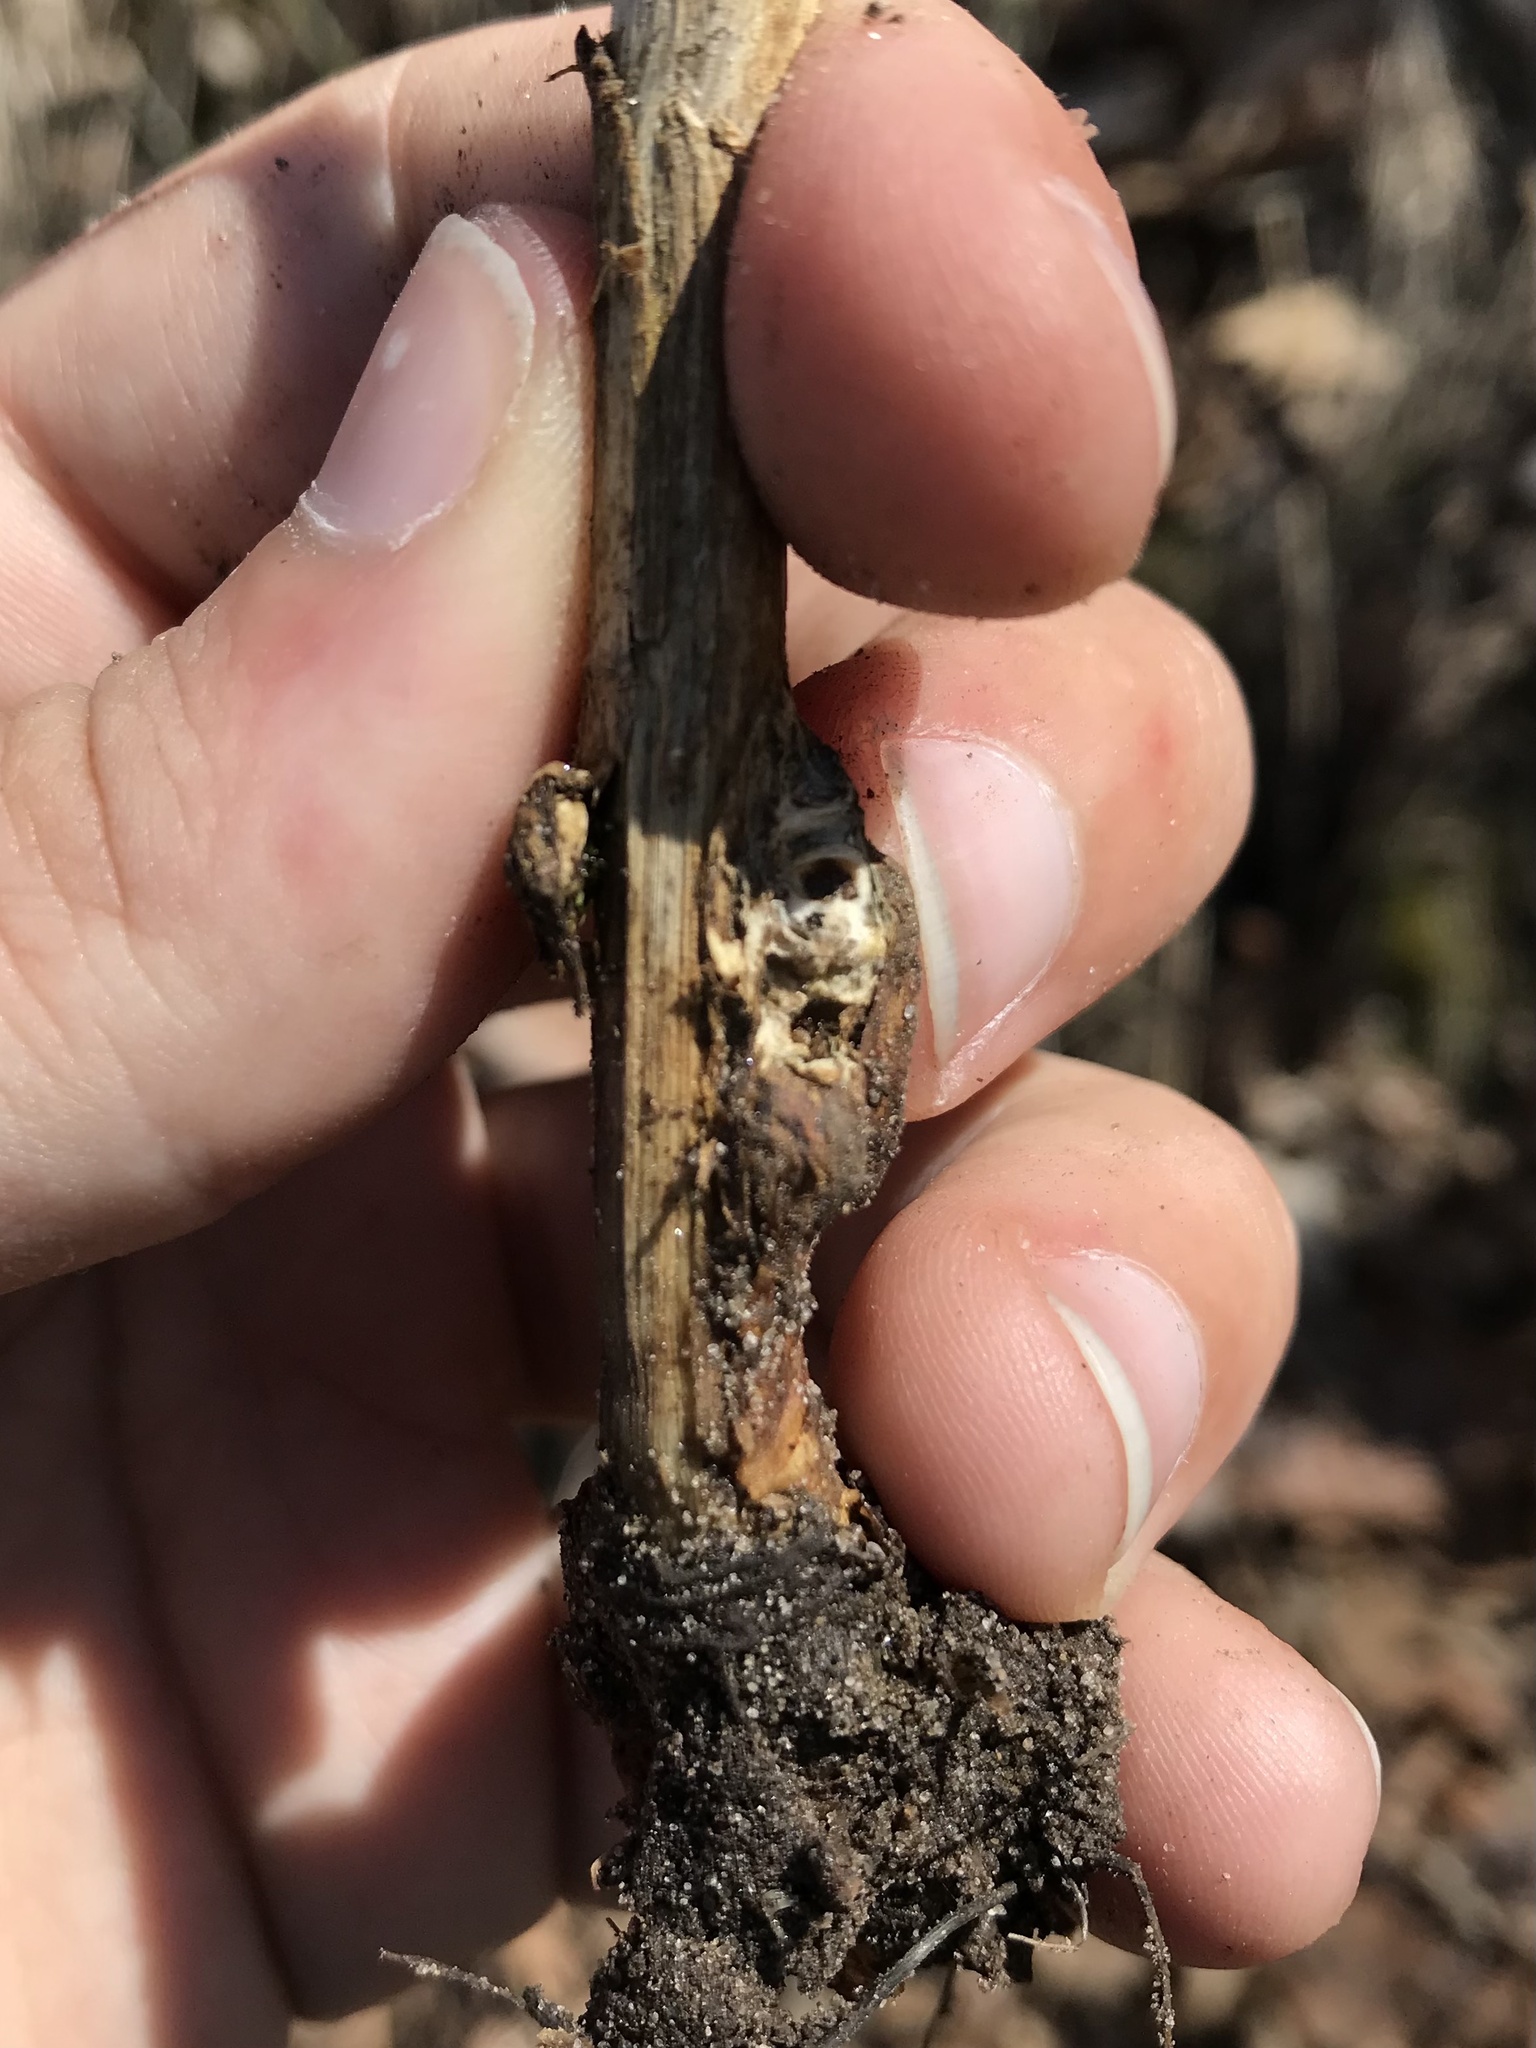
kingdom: Animalia
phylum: Arthropoda
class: Insecta
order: Hymenoptera
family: Cynipidae
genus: Aulacidea
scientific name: Aulacidea
